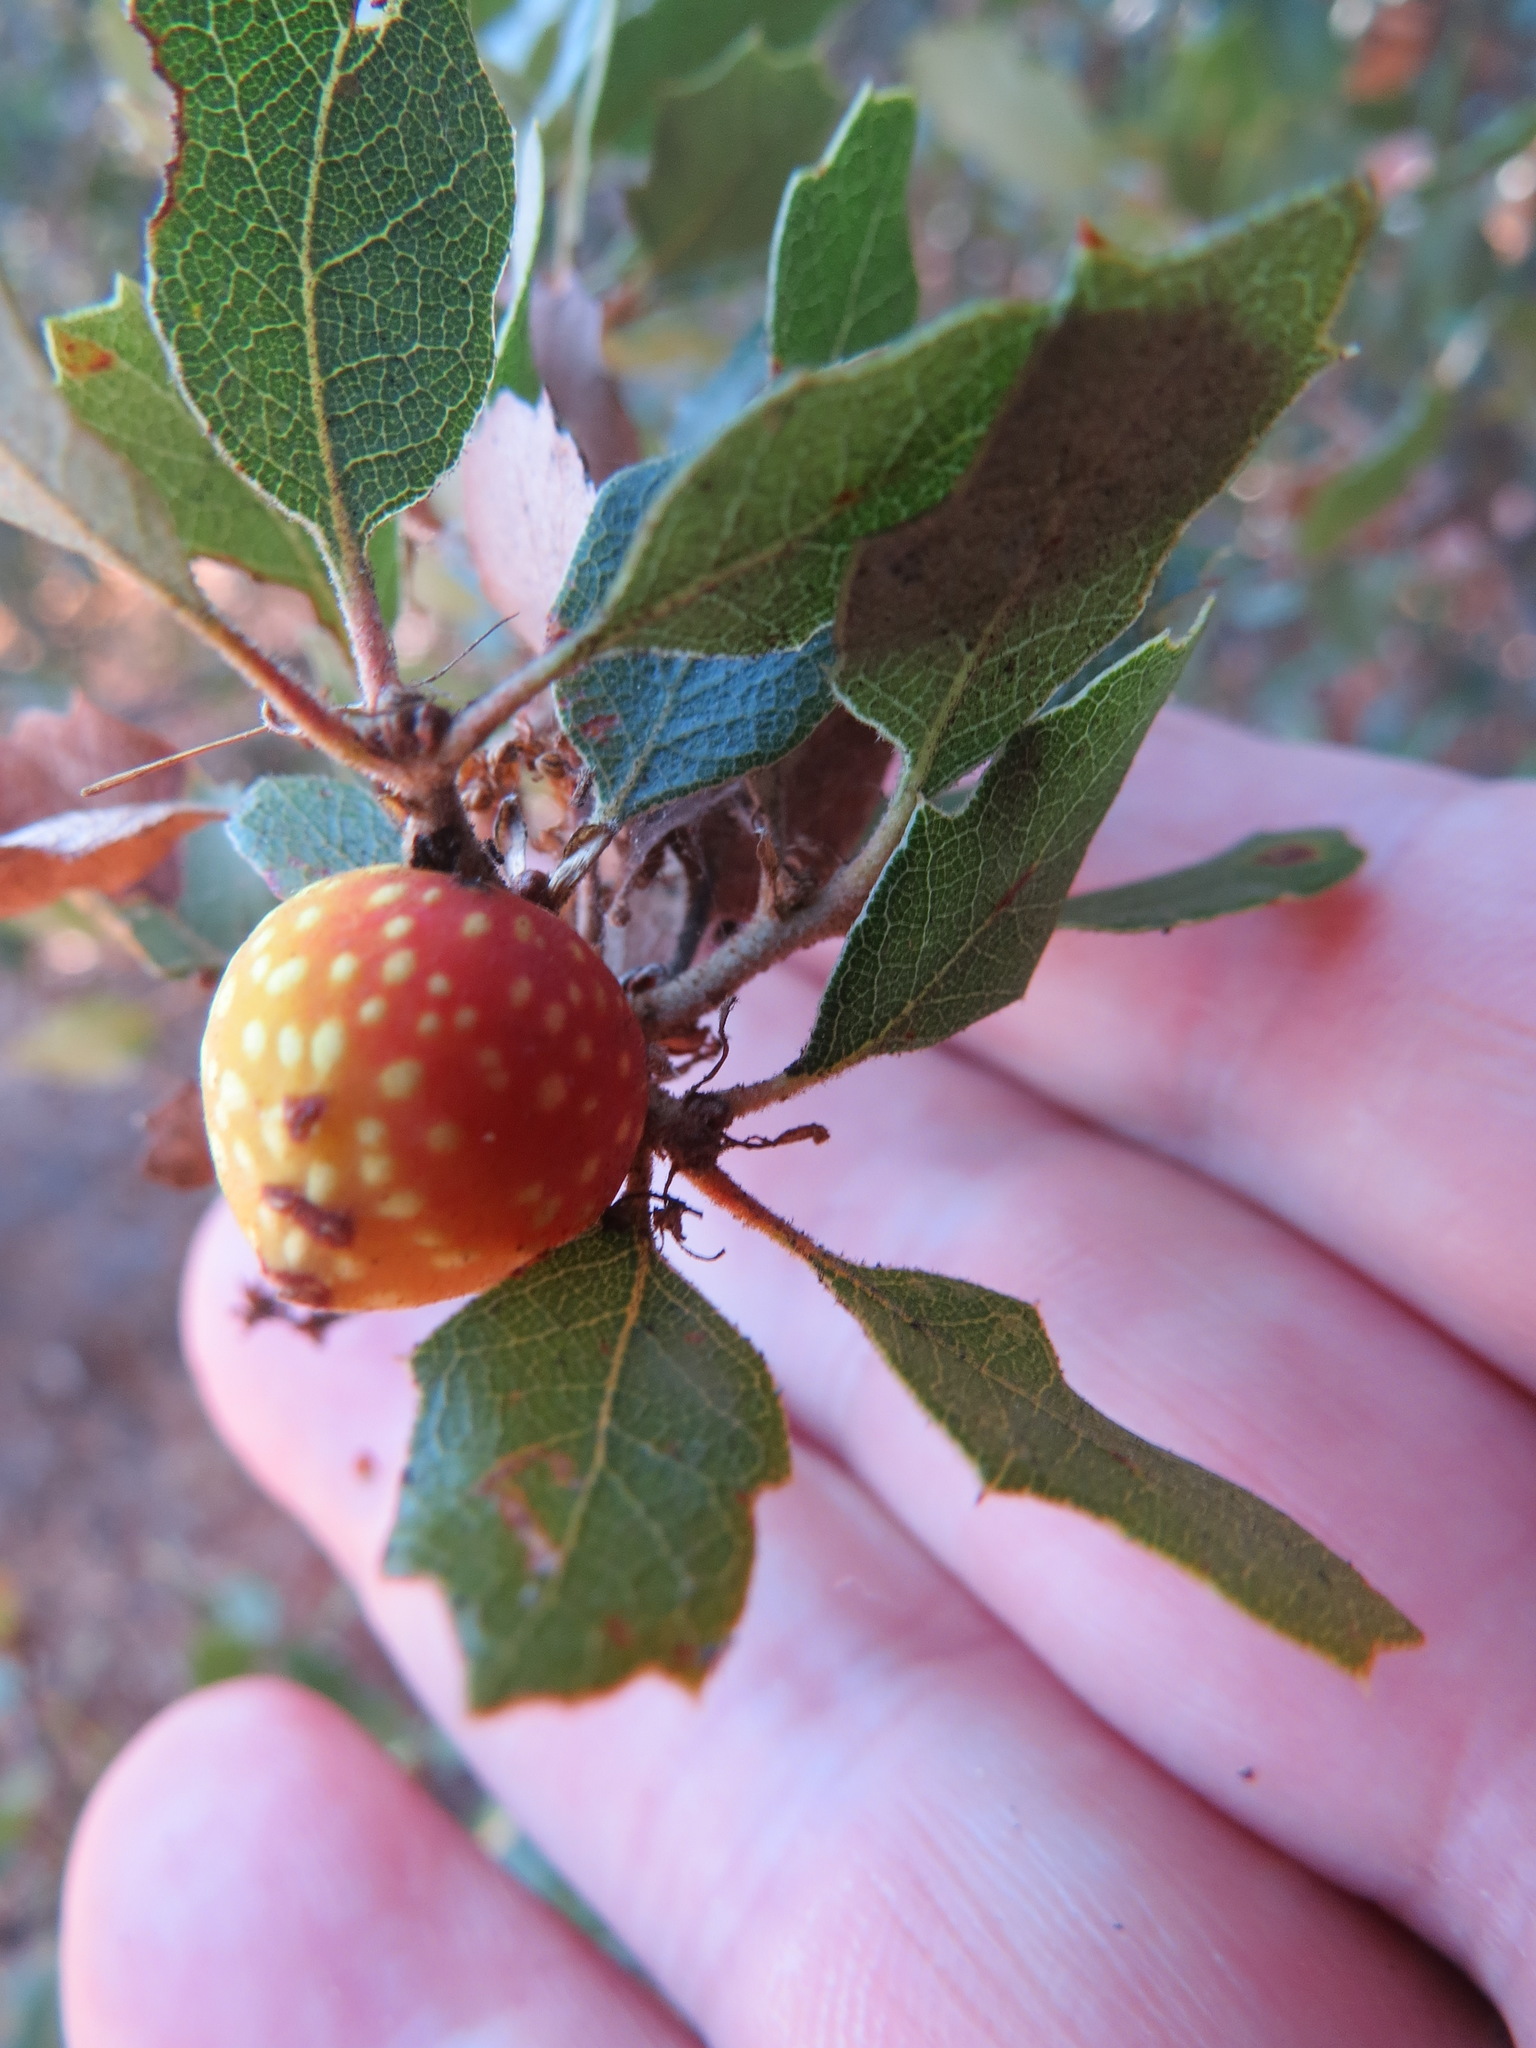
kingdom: Animalia
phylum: Arthropoda
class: Insecta
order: Hymenoptera
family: Cynipidae
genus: Burnettweldia
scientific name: Burnettweldia
